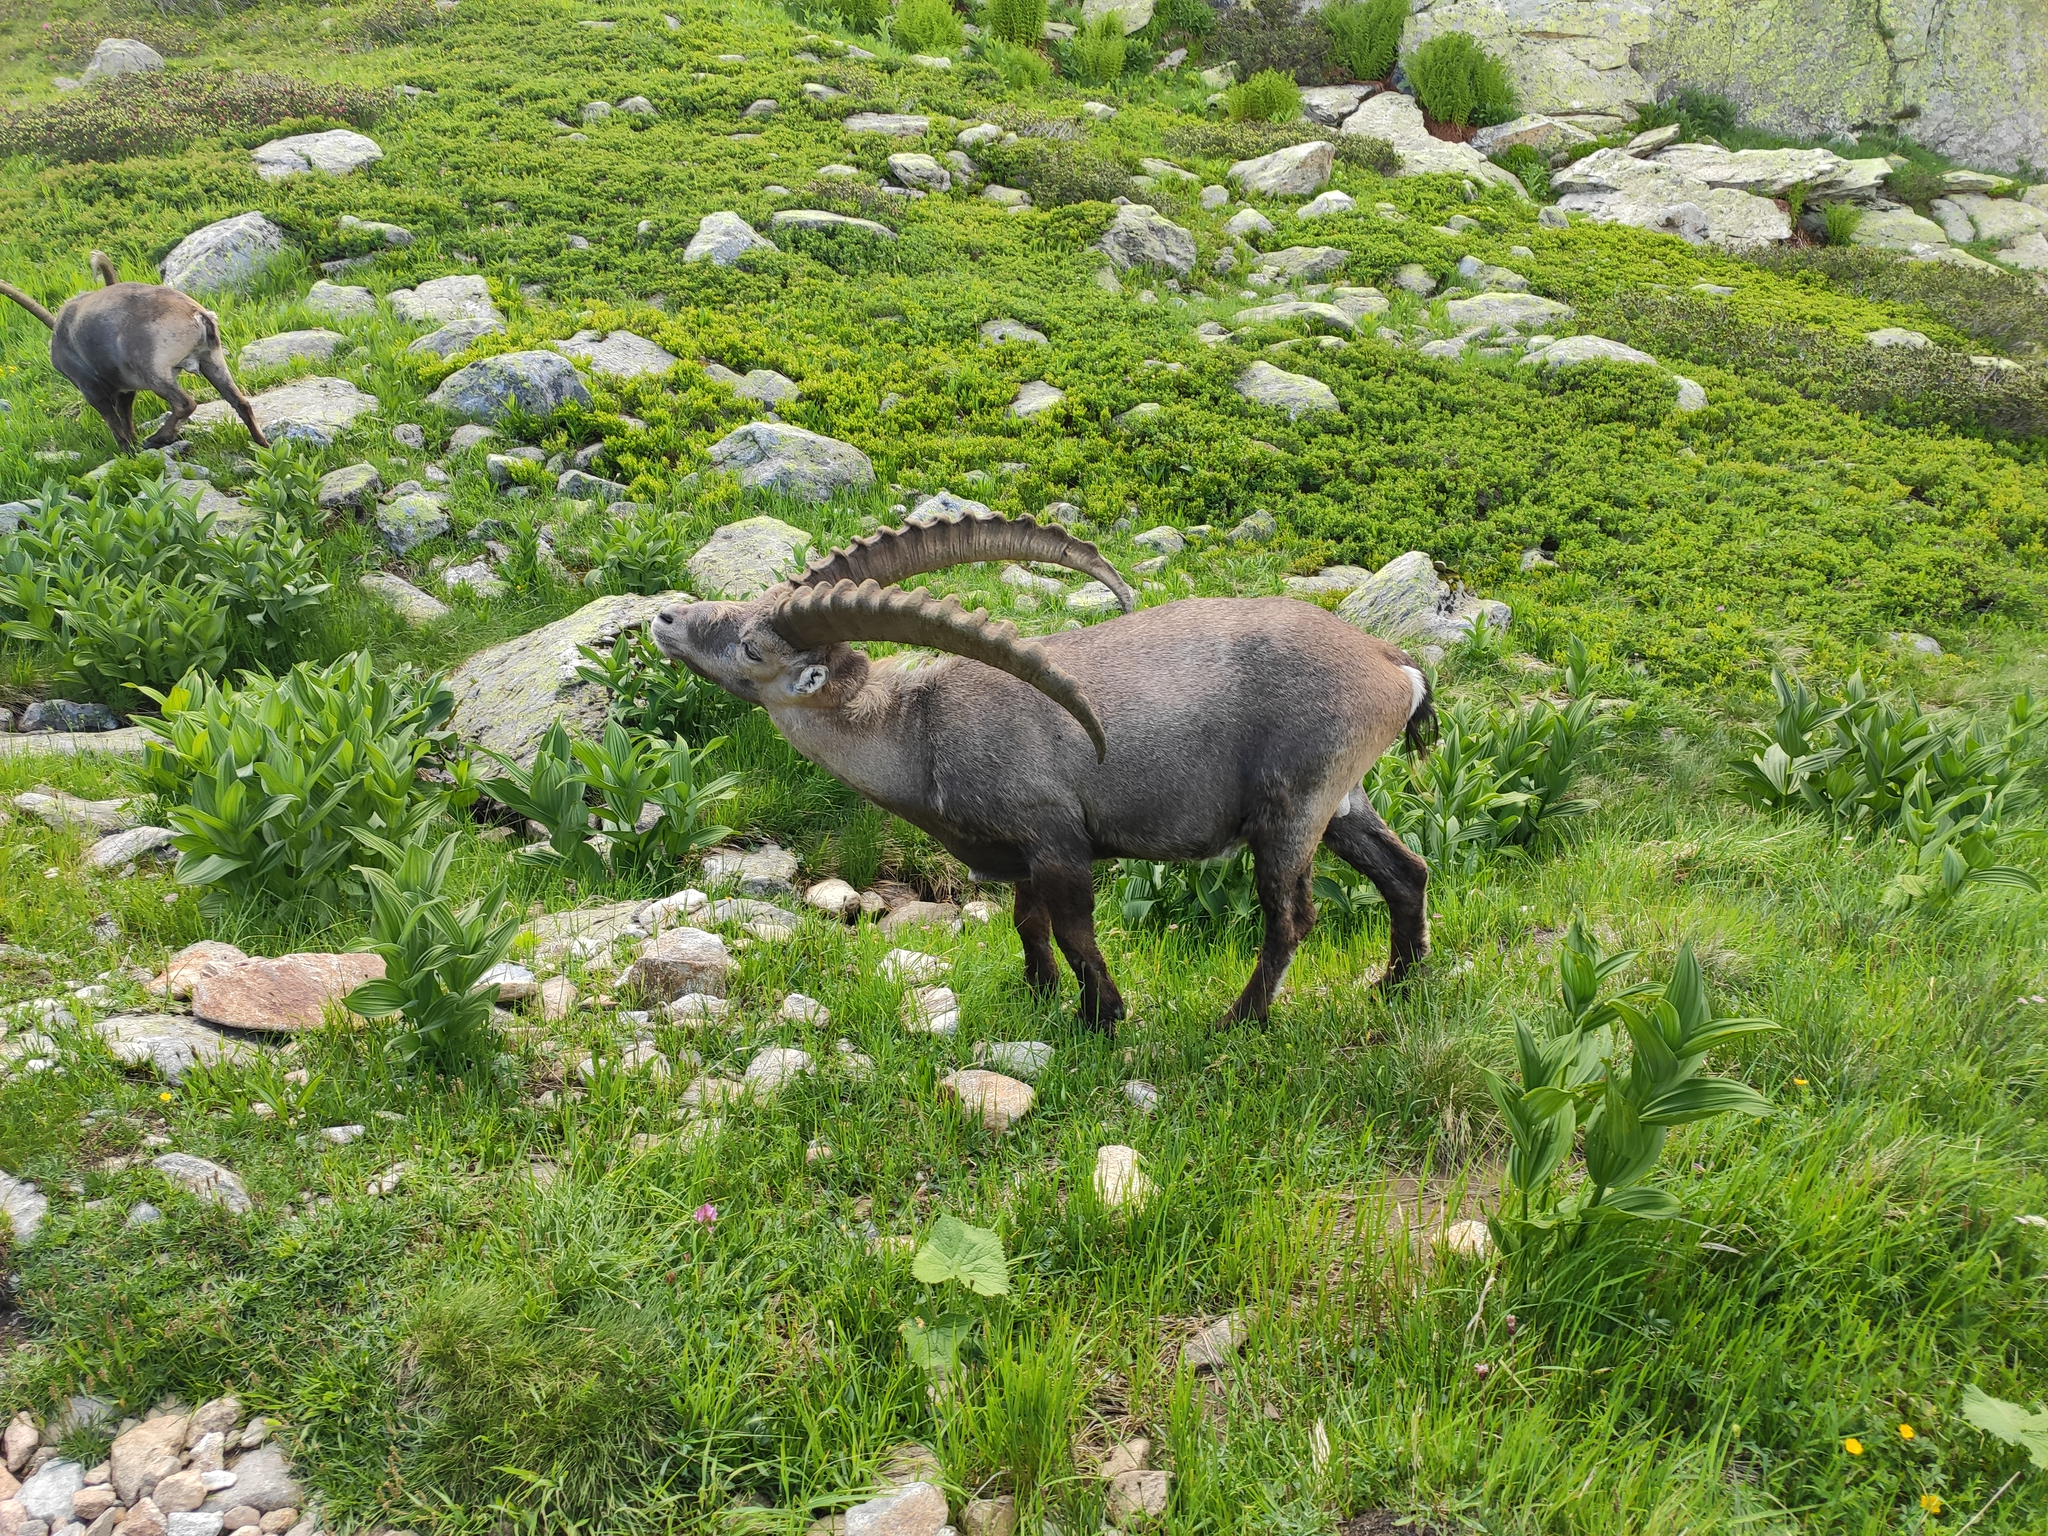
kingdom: Animalia
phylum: Chordata
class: Mammalia
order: Artiodactyla
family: Bovidae
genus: Capra
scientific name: Capra ibex
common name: Alpine ibex
